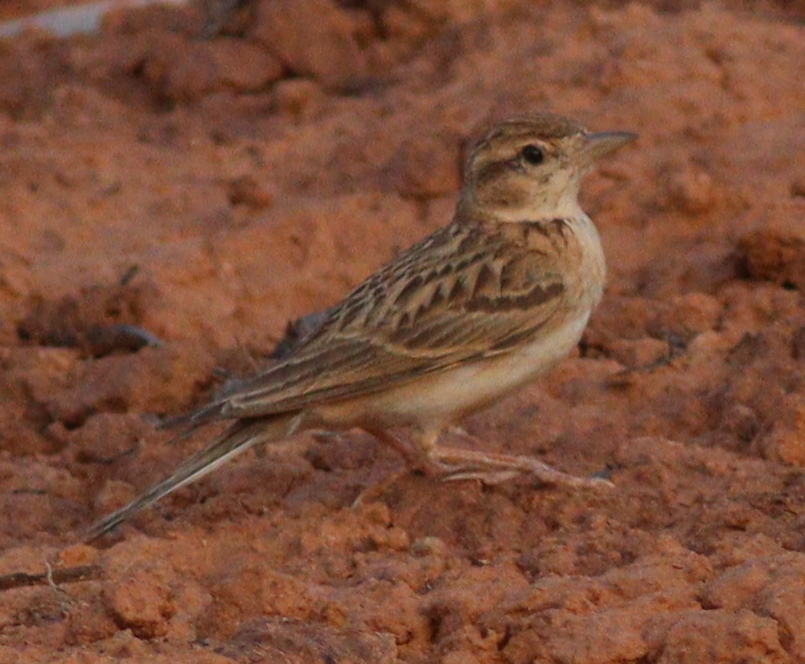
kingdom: Animalia
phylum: Chordata
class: Aves
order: Passeriformes
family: Alaudidae
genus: Calandrella
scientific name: Calandrella brachydactyla
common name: Greater short-toed lark
